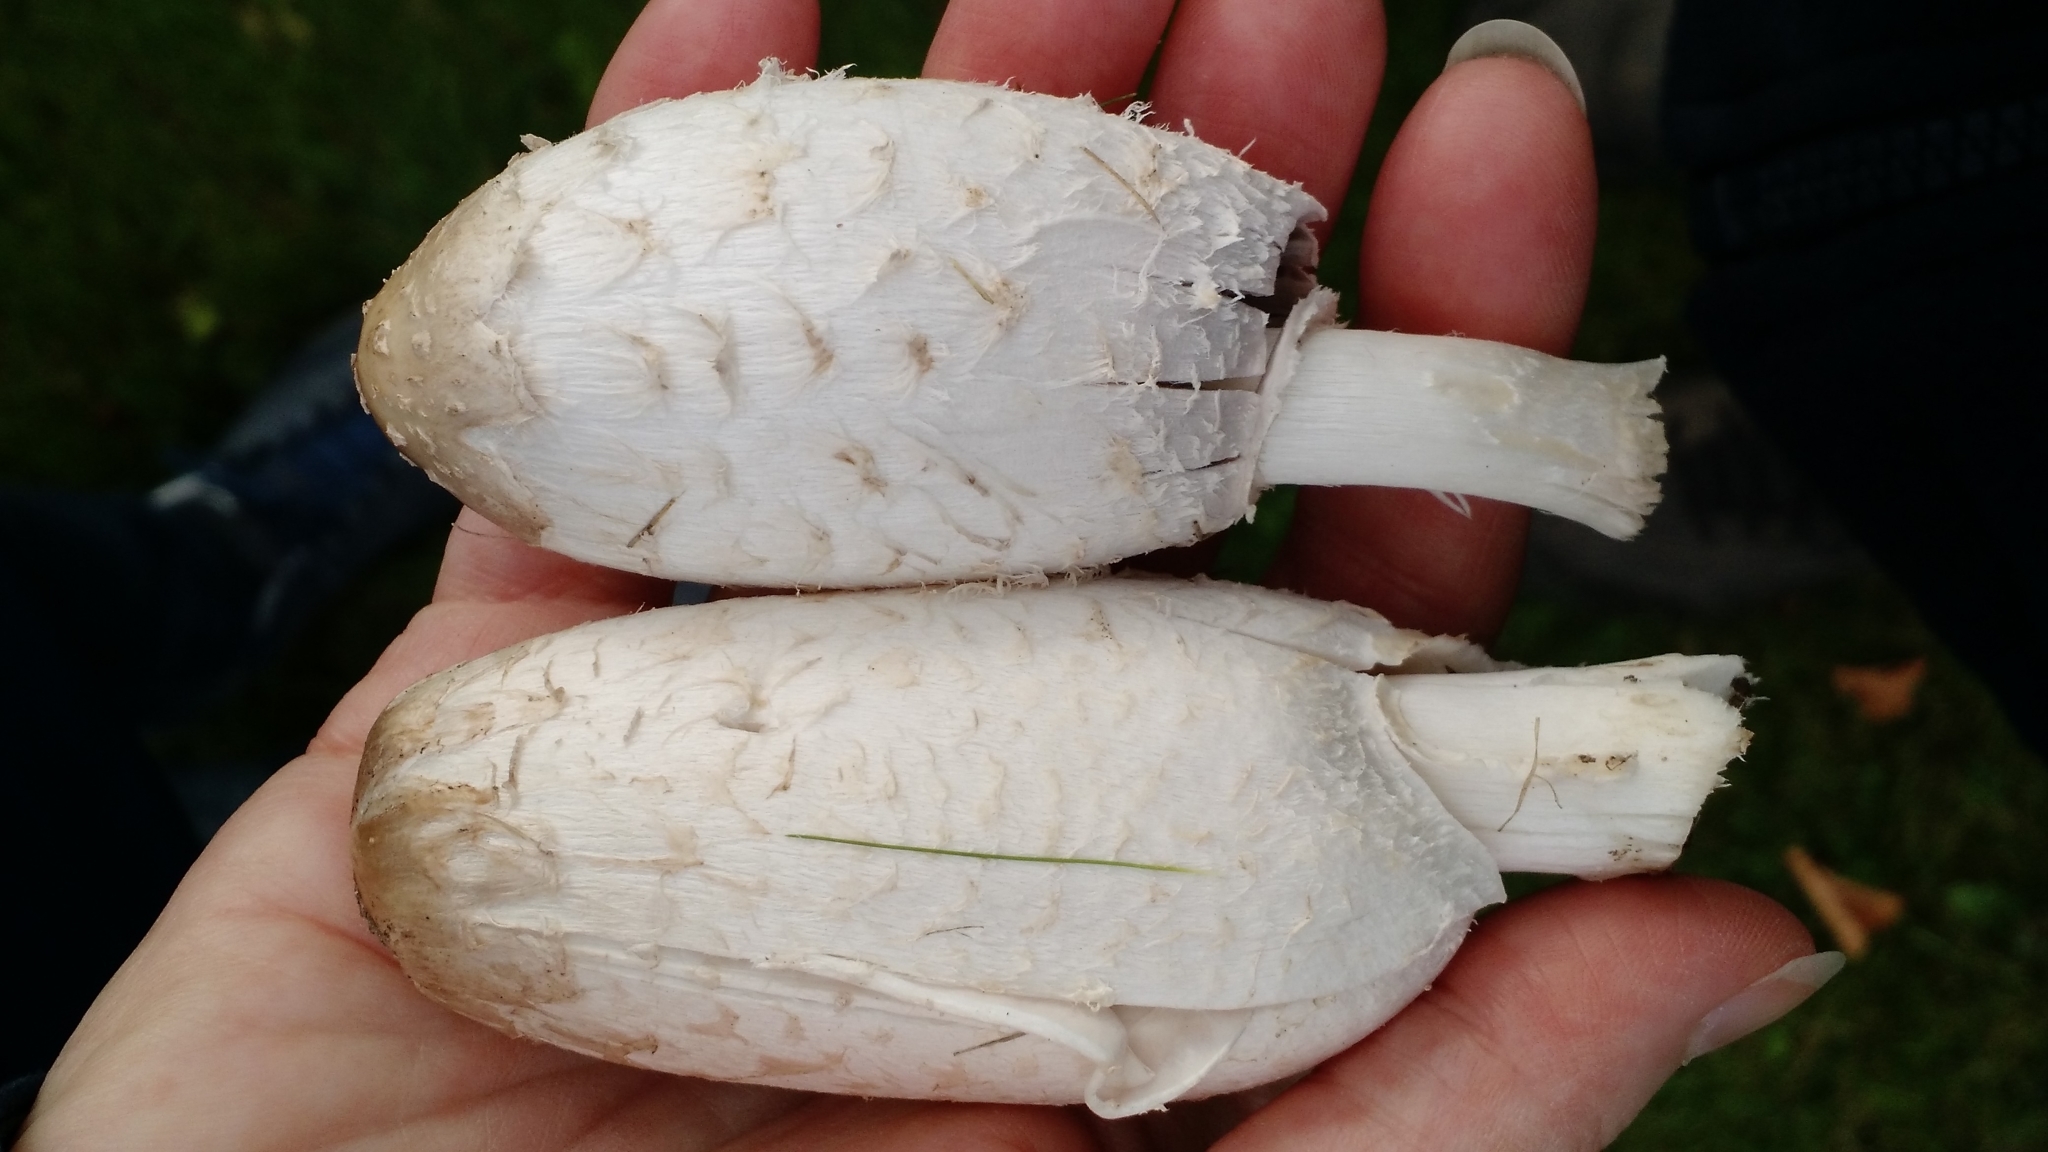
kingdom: Fungi
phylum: Basidiomycota
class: Agaricomycetes
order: Agaricales
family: Agaricaceae
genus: Coprinus
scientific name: Coprinus comatus
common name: Lawyer's wig
